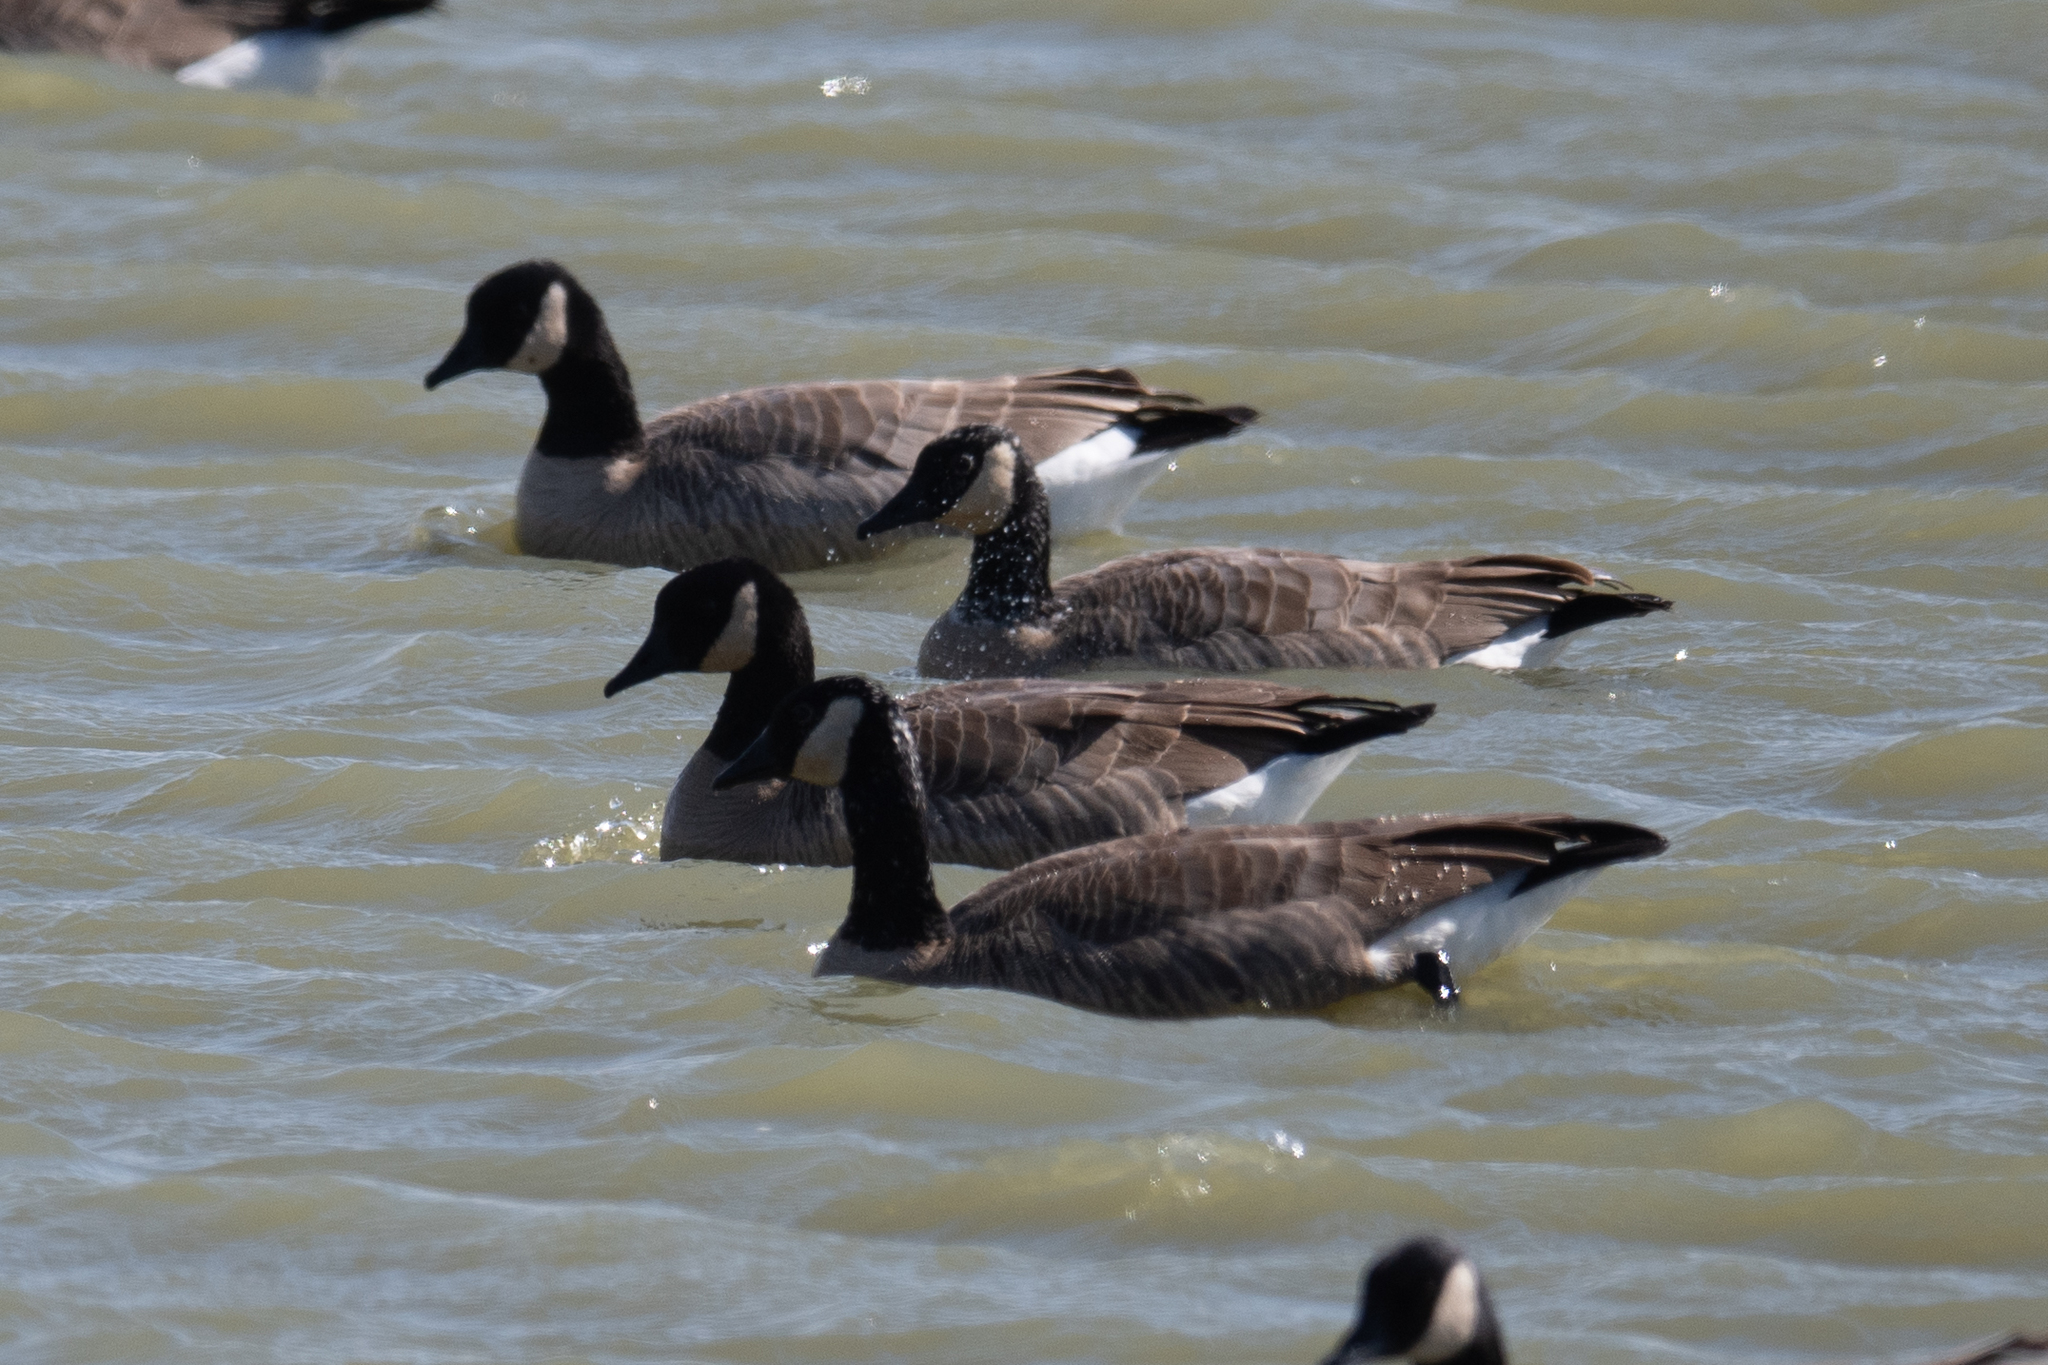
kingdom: Animalia
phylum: Chordata
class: Aves
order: Anseriformes
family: Anatidae
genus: Branta
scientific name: Branta canadensis
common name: Canada goose
